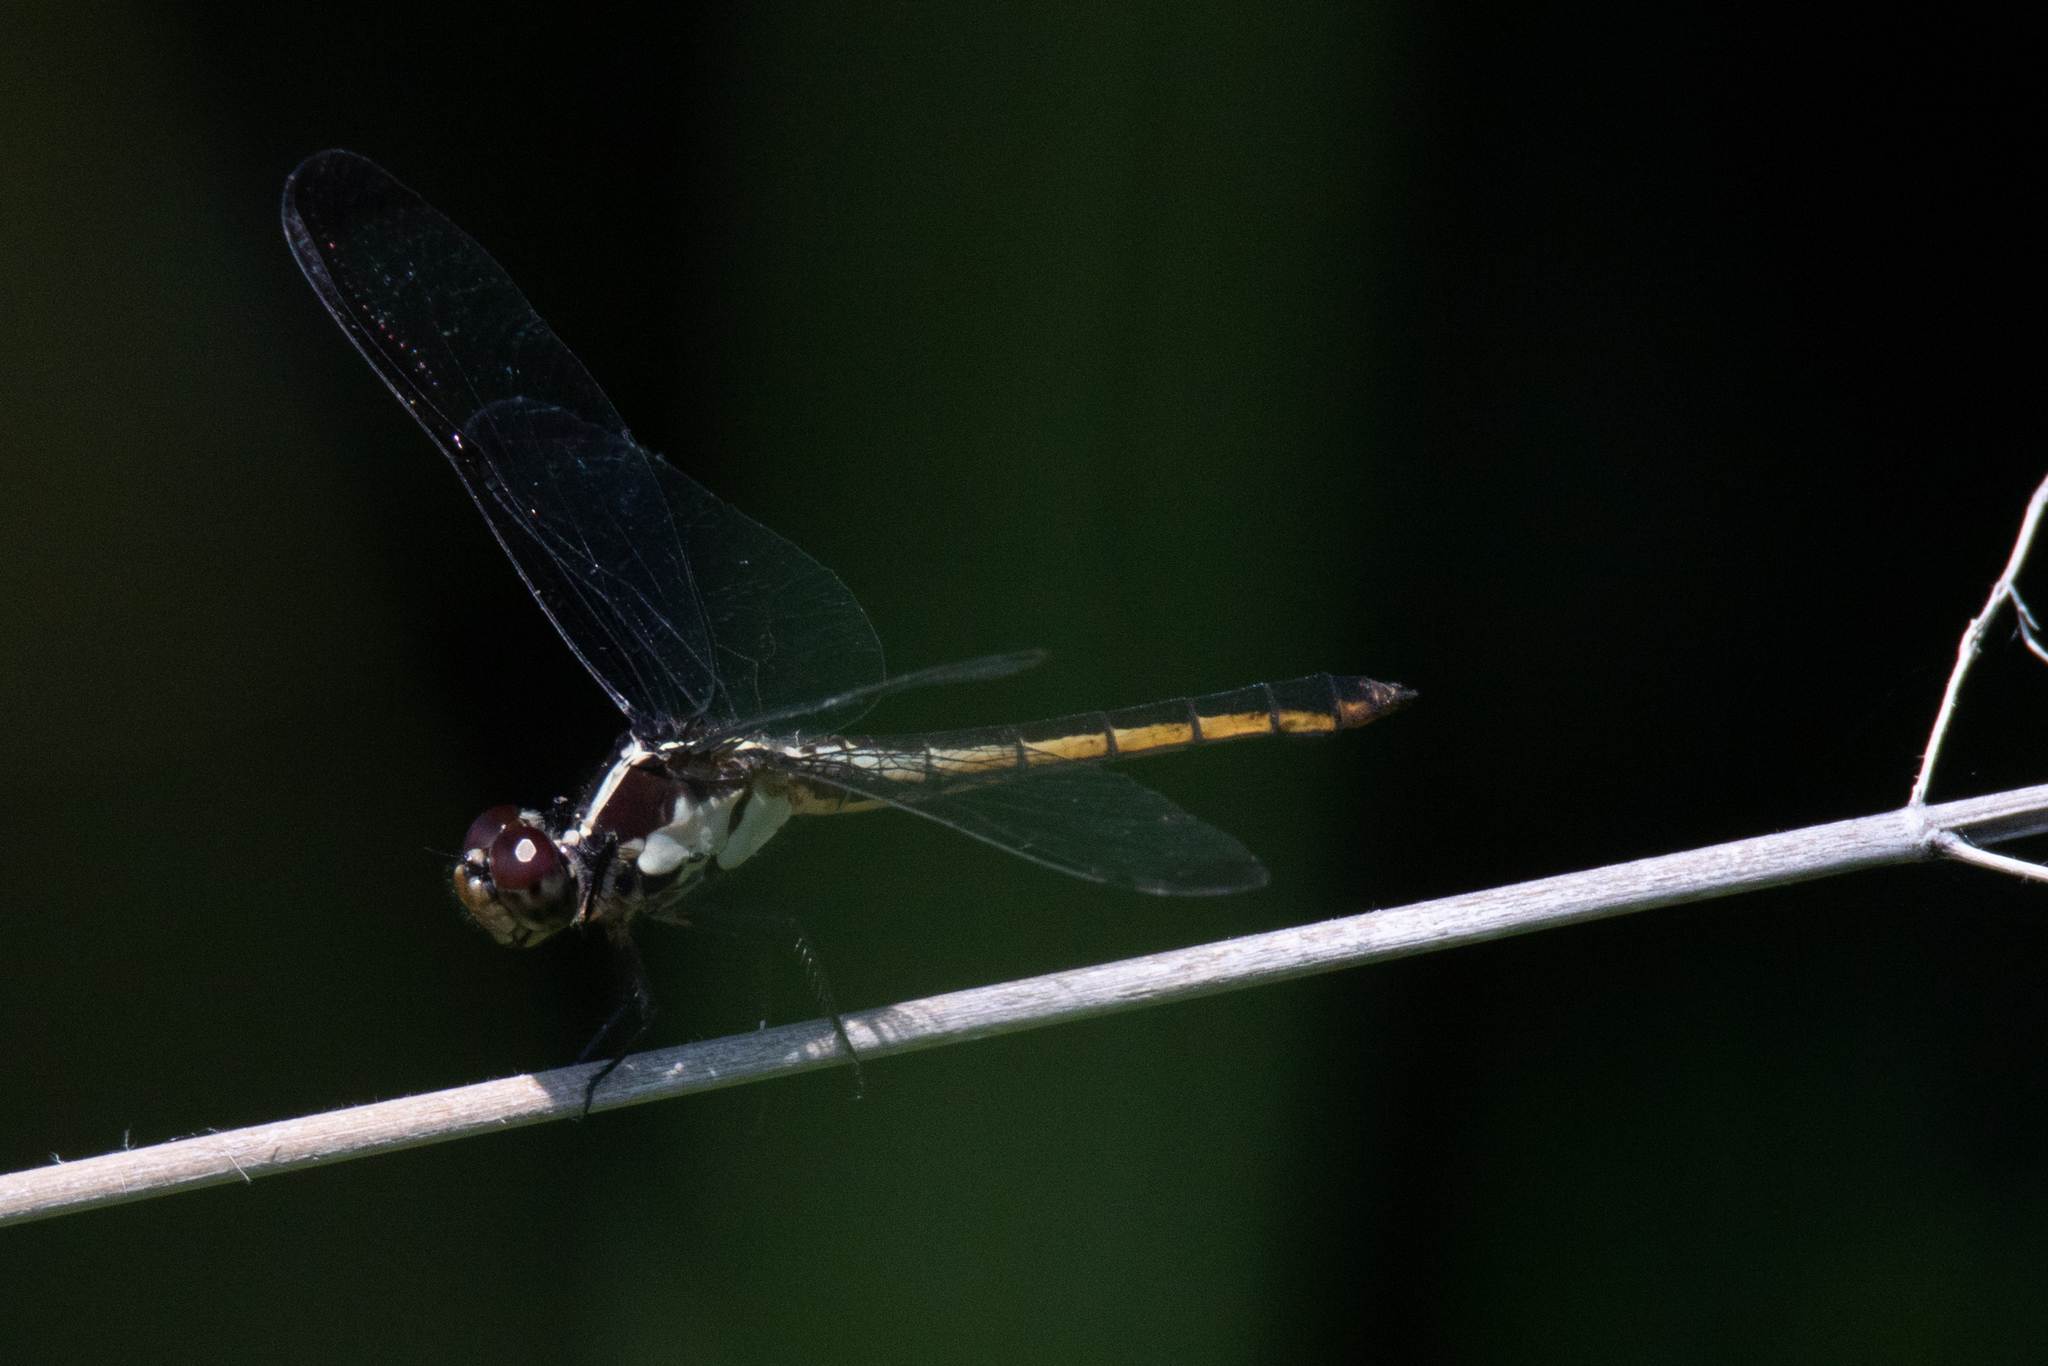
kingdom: Animalia
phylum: Arthropoda
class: Insecta
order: Odonata
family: Libellulidae
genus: Libellula
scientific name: Libellula incesta
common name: Slaty skimmer
